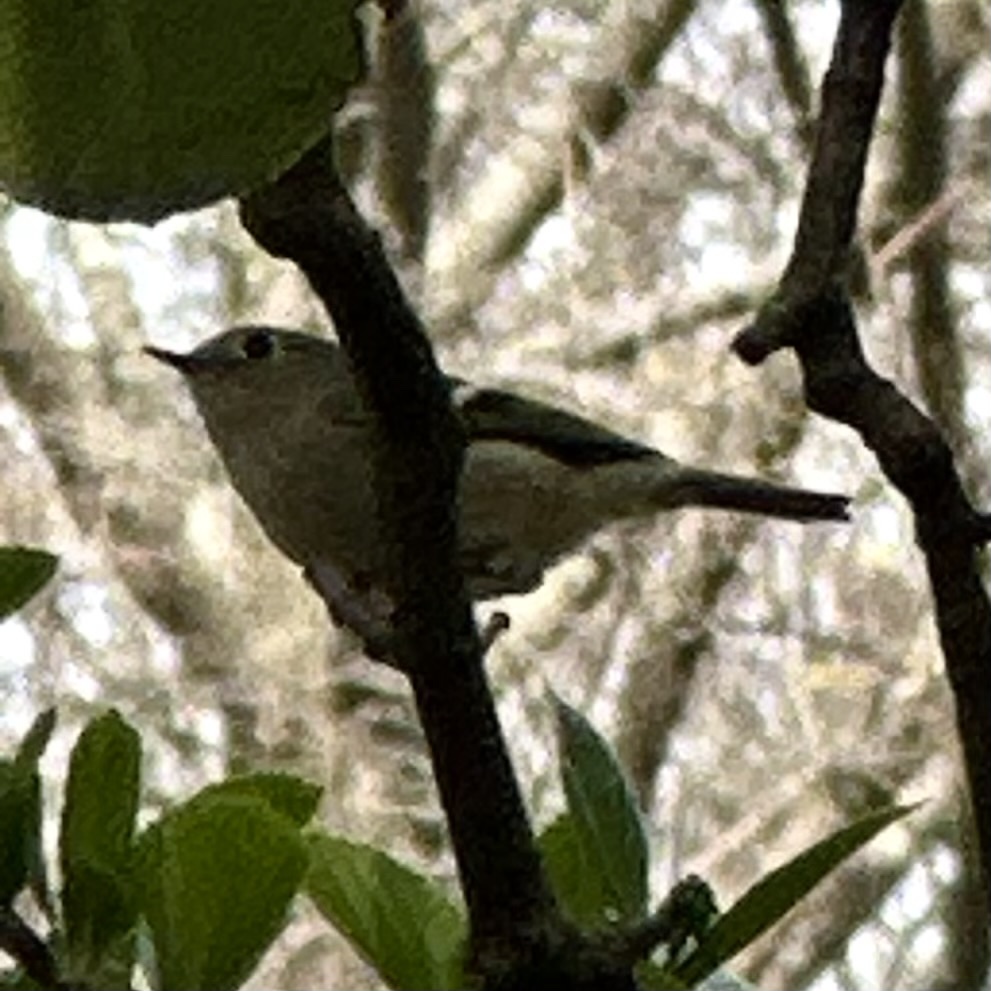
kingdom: Animalia
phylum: Chordata
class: Aves
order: Passeriformes
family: Regulidae
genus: Regulus
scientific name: Regulus calendula
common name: Ruby-crowned kinglet
